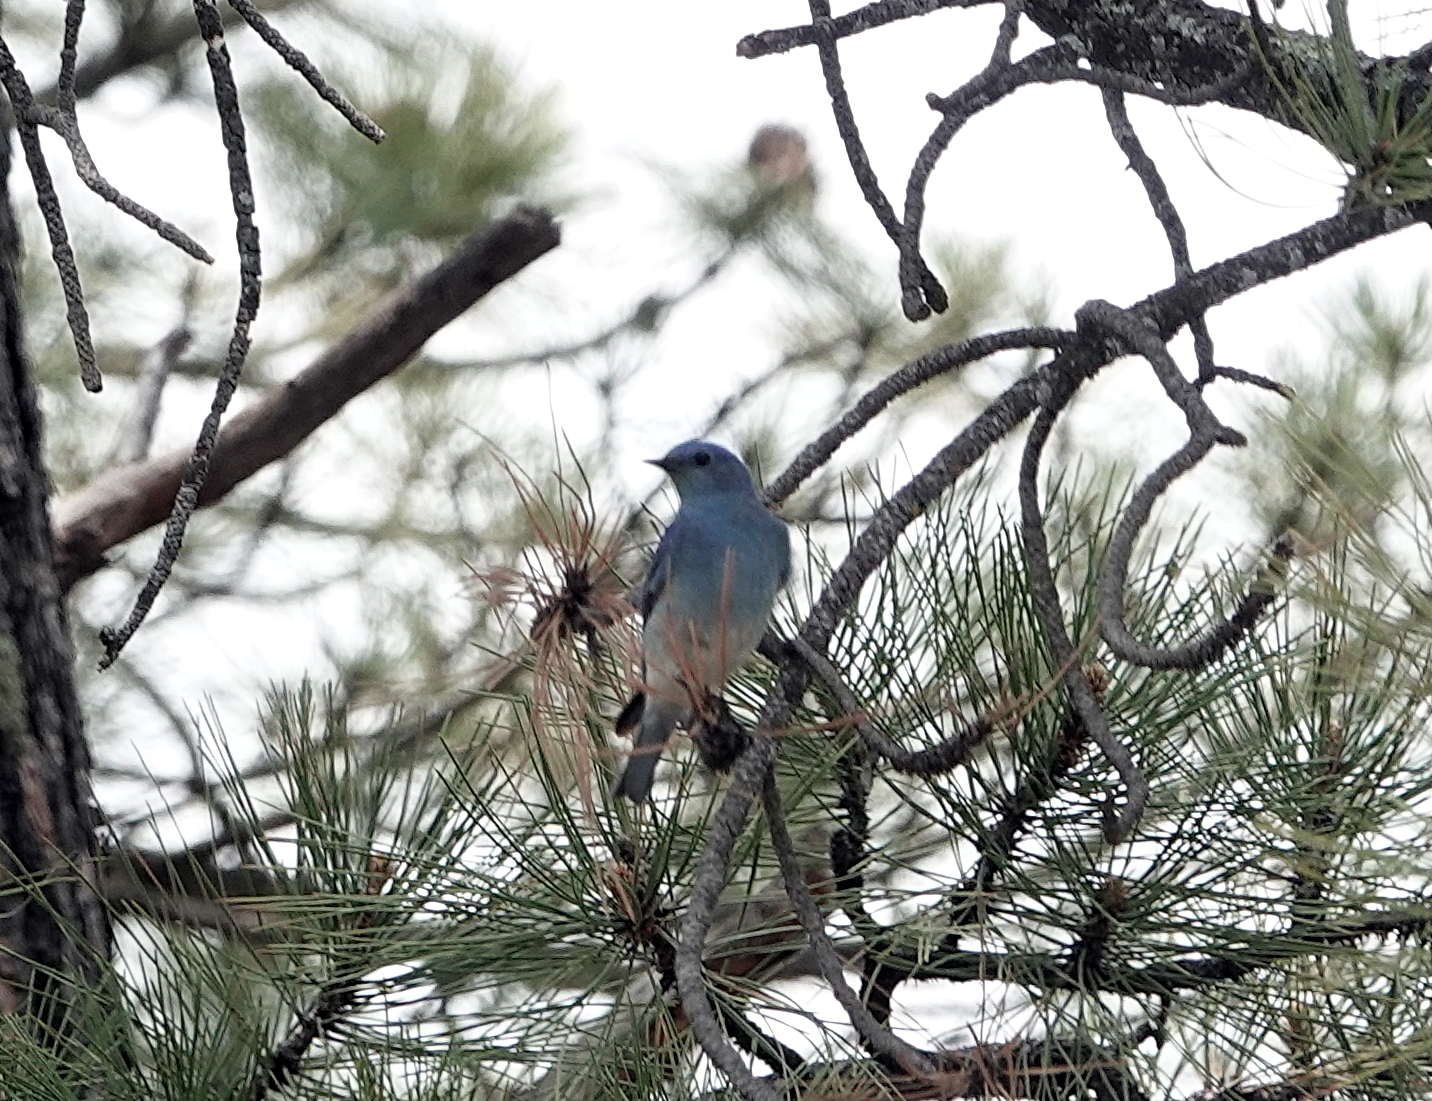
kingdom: Animalia
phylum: Chordata
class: Aves
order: Passeriformes
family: Turdidae
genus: Sialia
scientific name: Sialia currucoides
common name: Mountain bluebird
